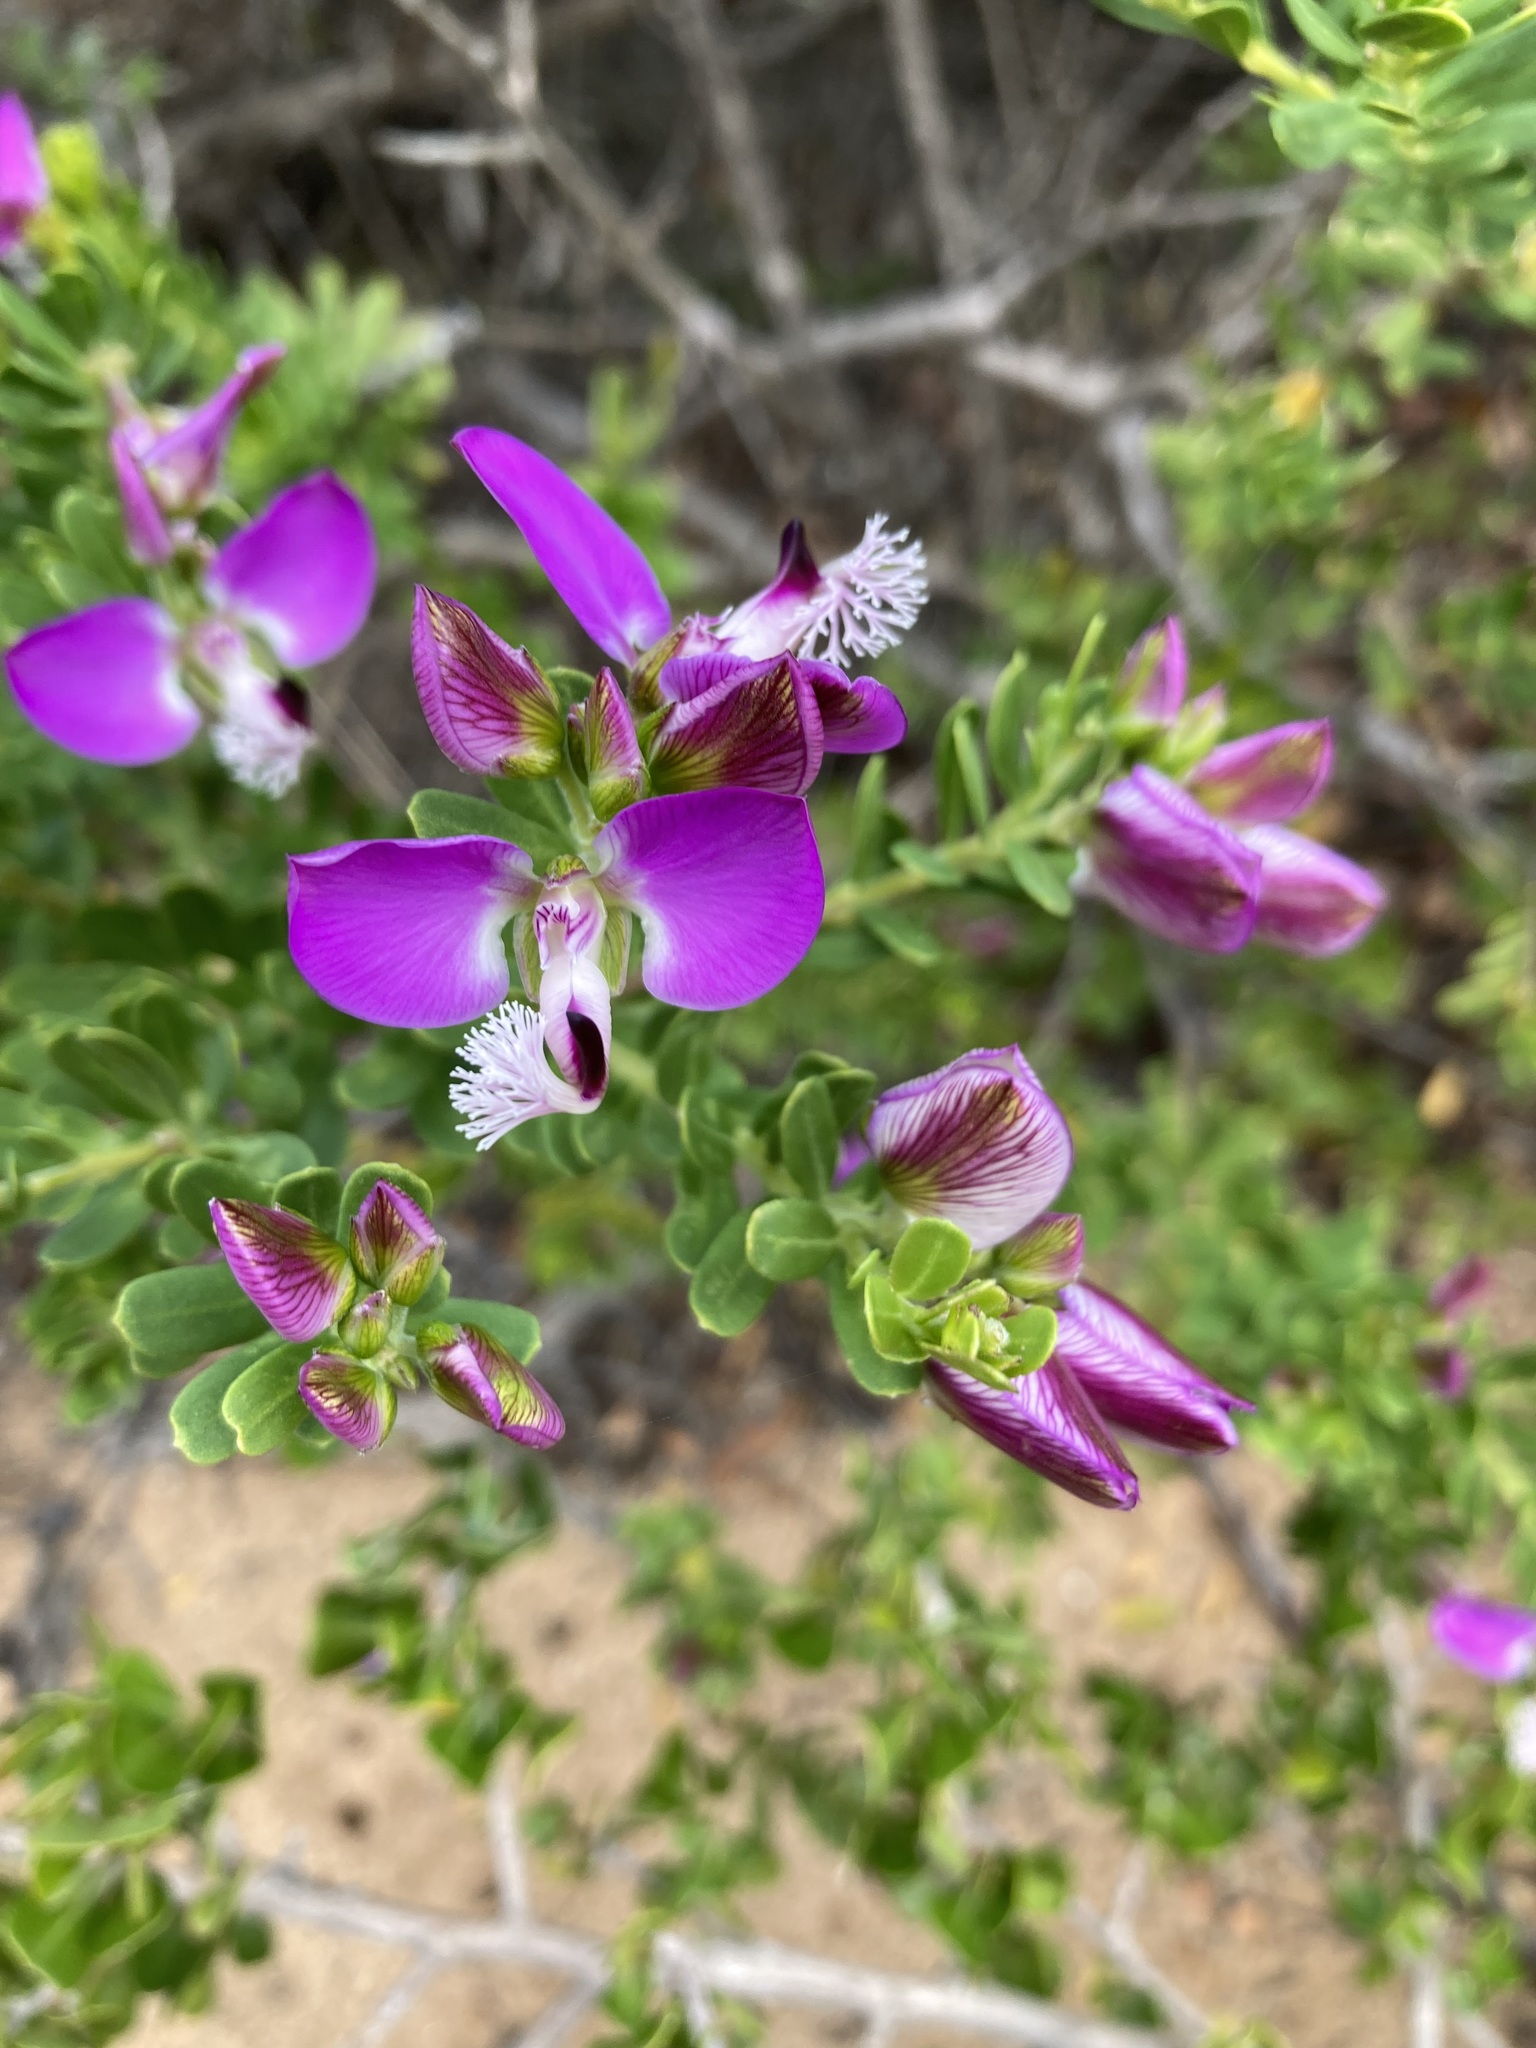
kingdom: Plantae
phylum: Tracheophyta
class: Magnoliopsida
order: Fabales
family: Polygalaceae
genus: Polygala
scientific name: Polygala myrtifolia
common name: Myrtle-leaf milkwort
